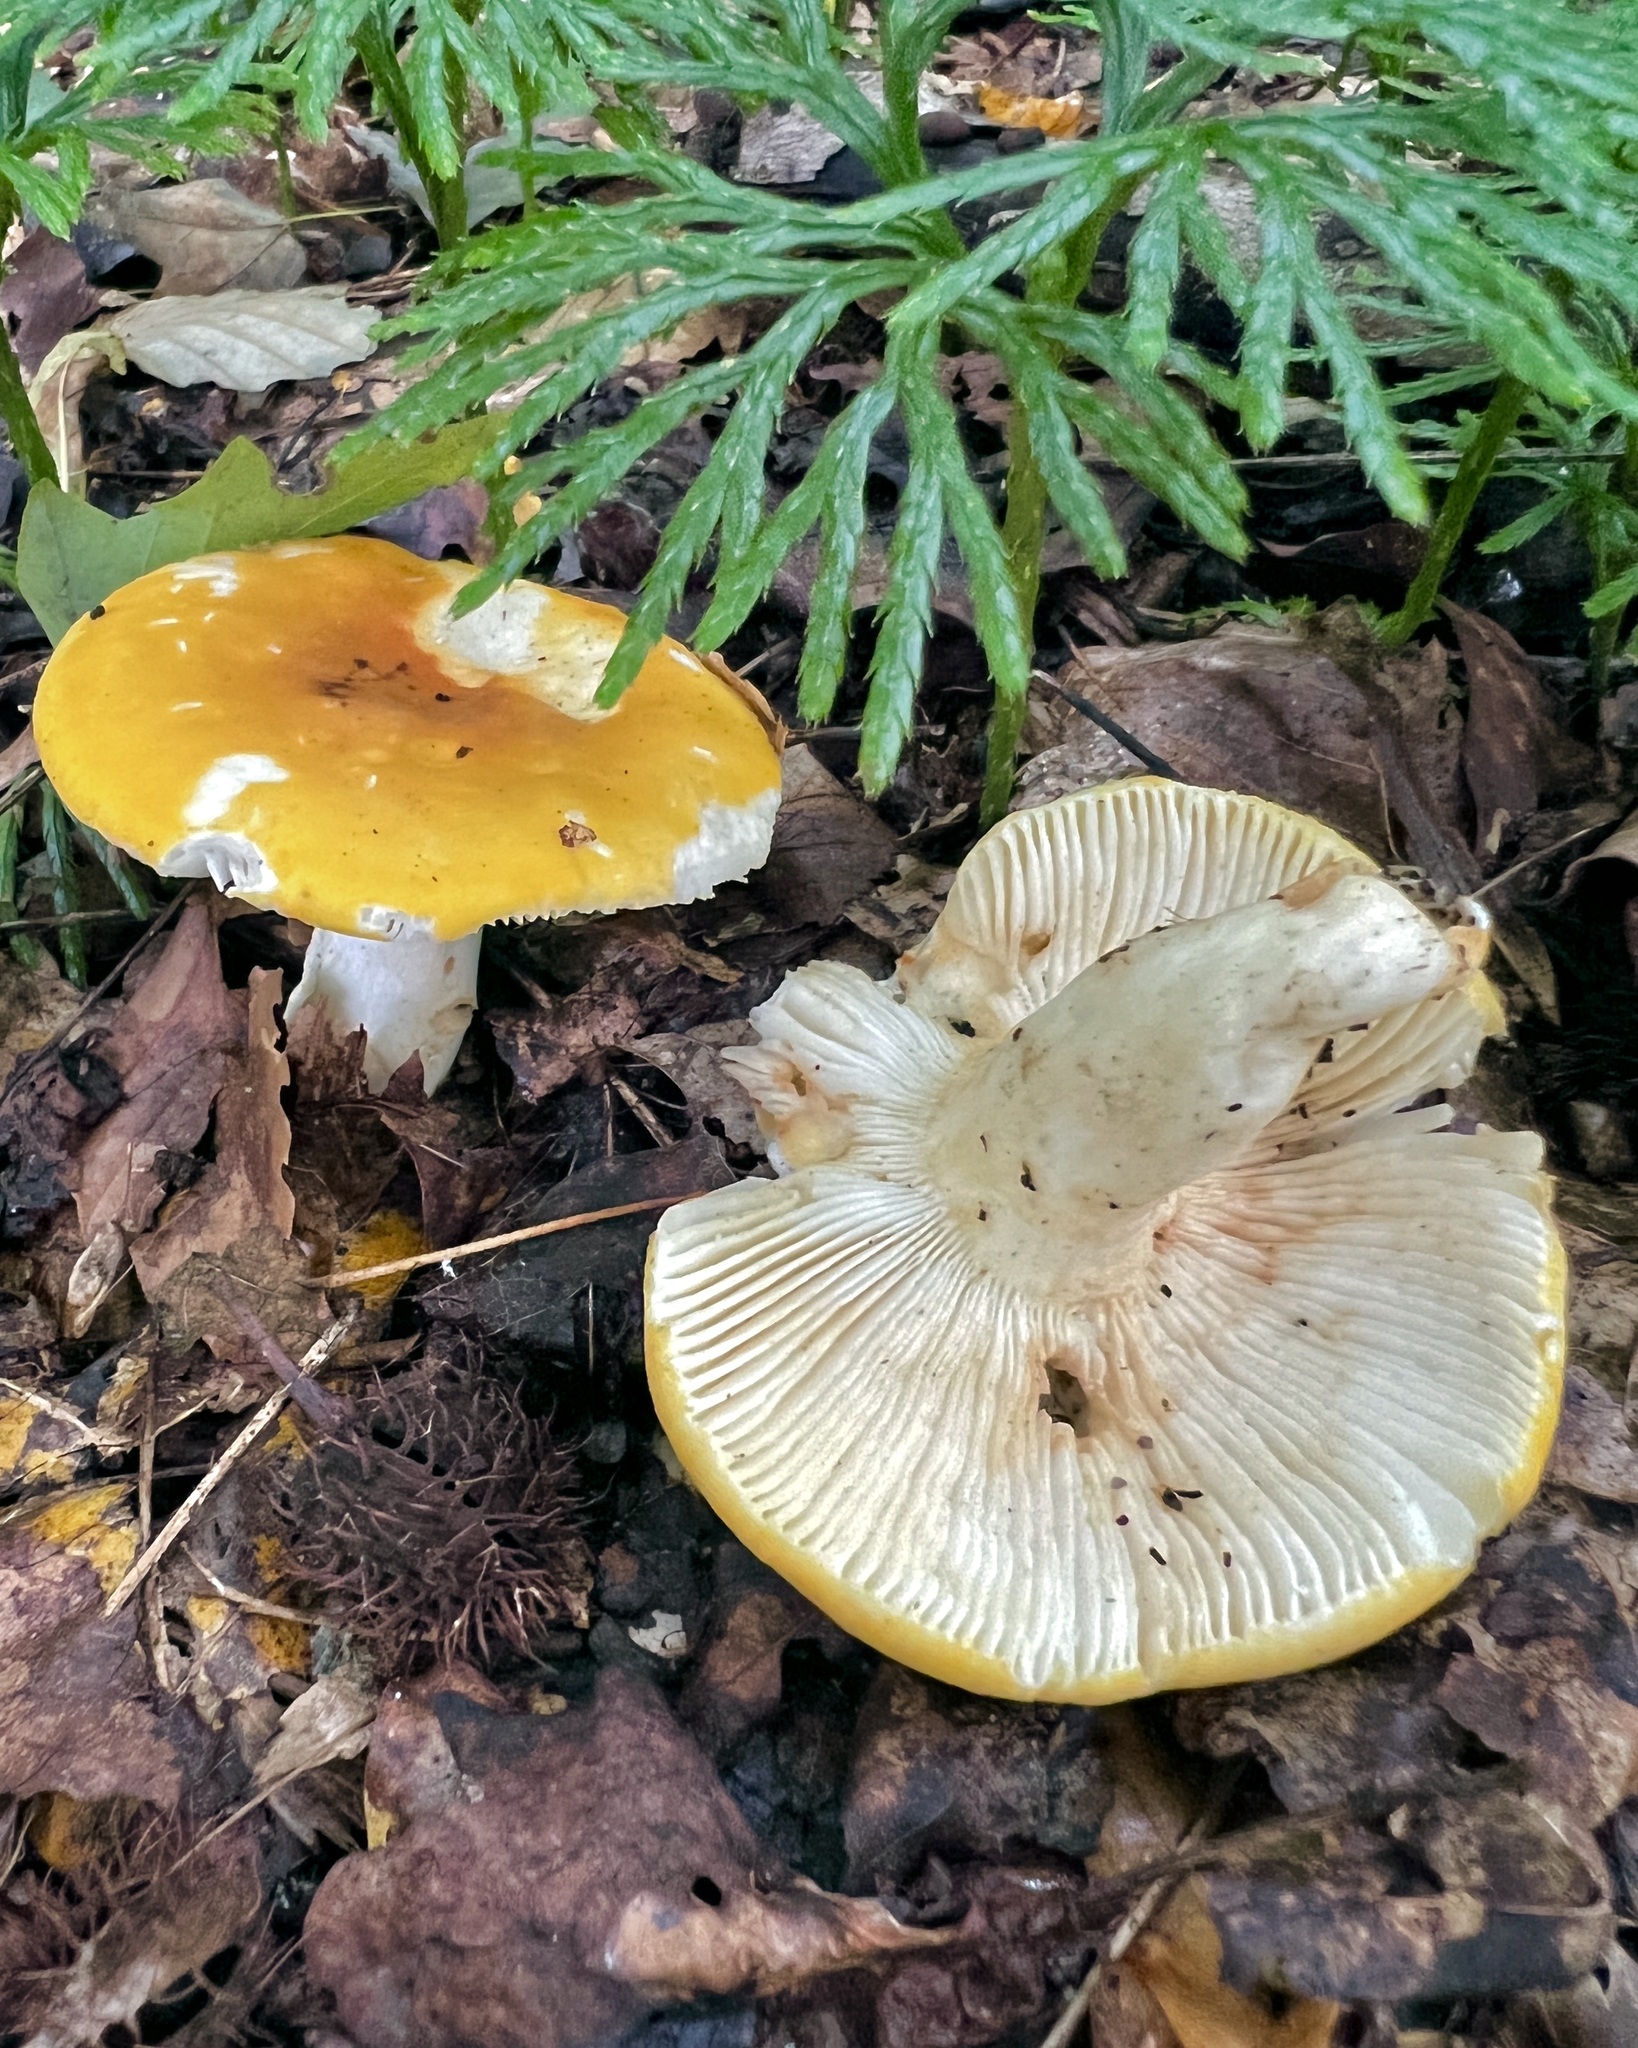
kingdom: Fungi
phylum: Basidiomycota
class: Agaricomycetes
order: Russulales
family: Russulaceae
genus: Russula
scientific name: Russula ochroleucoides
